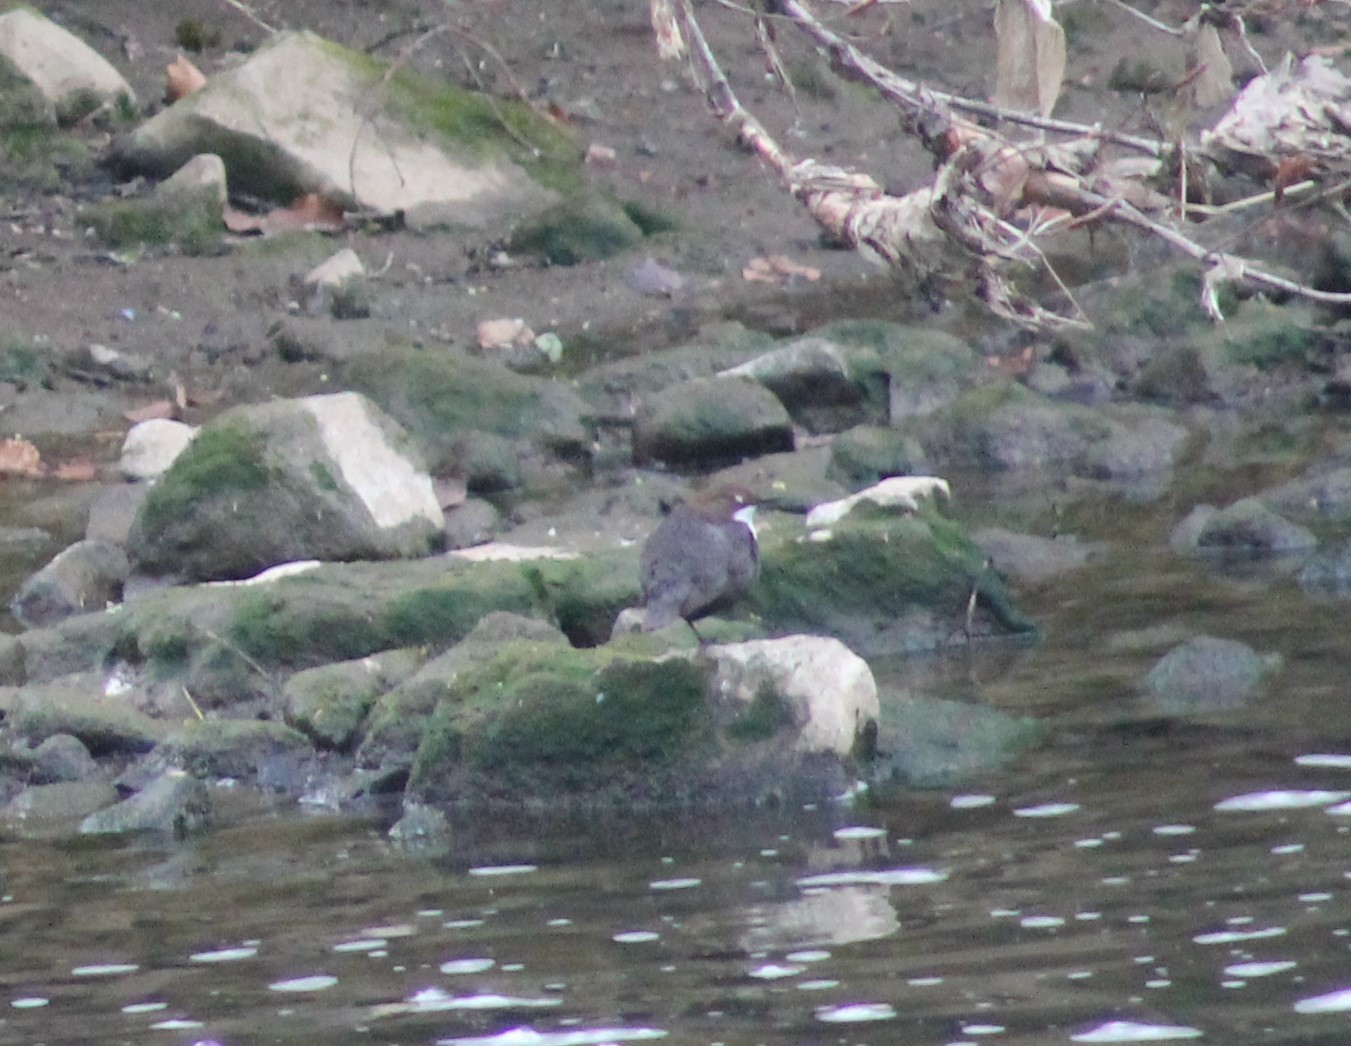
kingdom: Animalia
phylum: Chordata
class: Aves
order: Passeriformes
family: Cinclidae
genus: Cinclus
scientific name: Cinclus cinclus
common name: White-throated dipper
